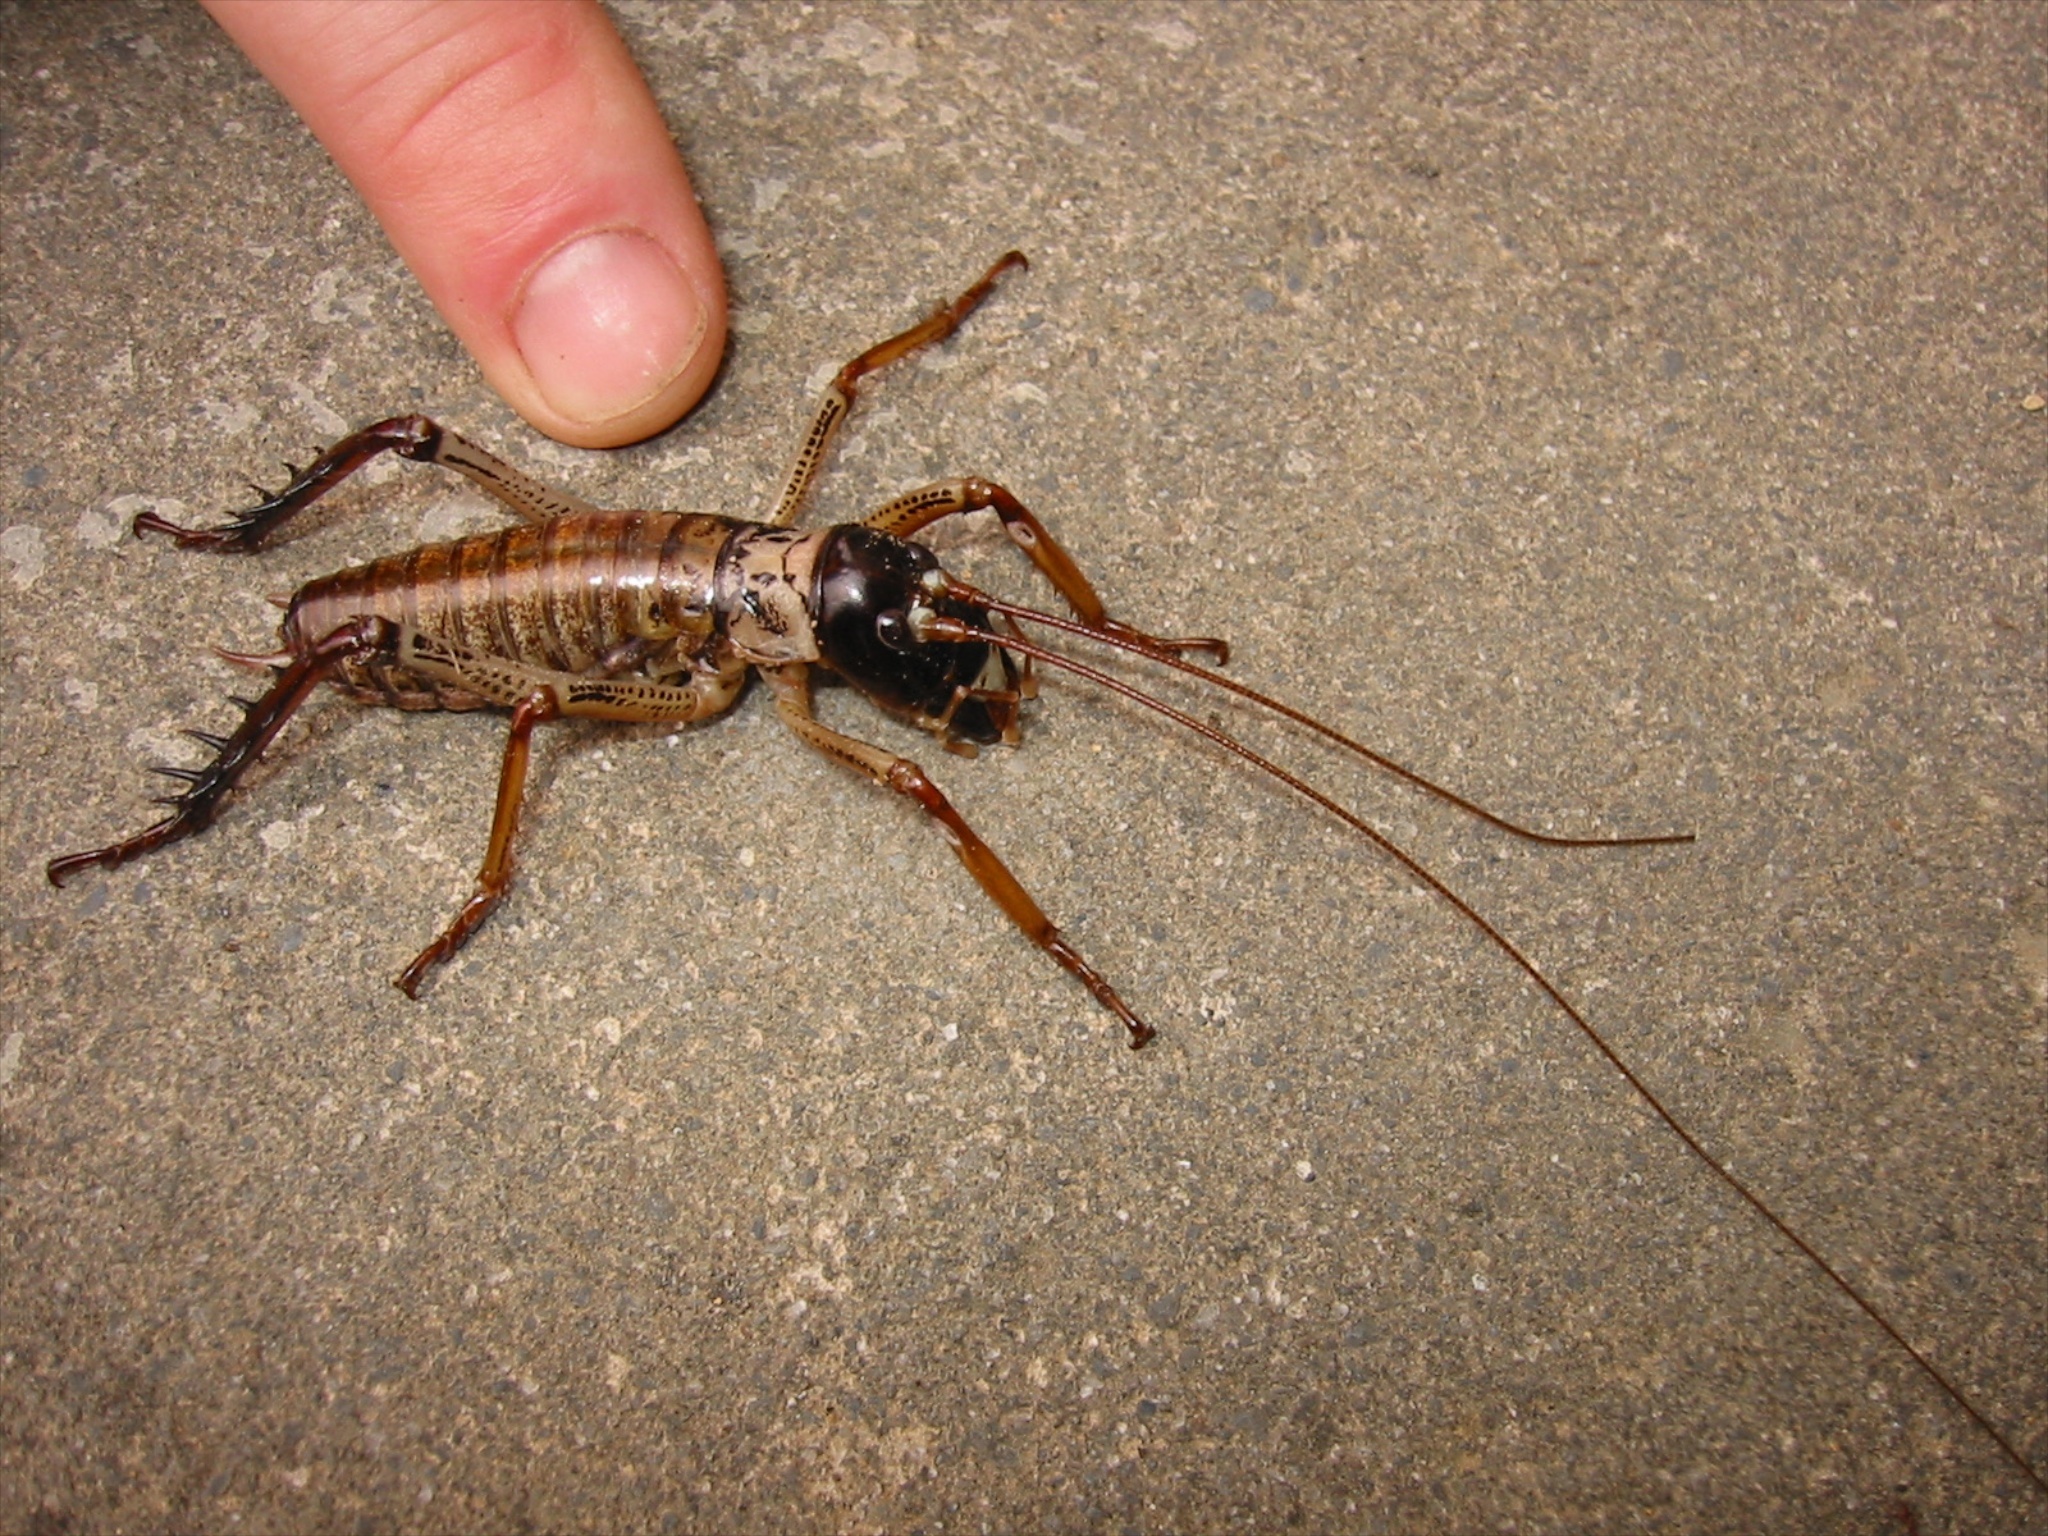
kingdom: Animalia
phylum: Arthropoda
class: Insecta
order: Orthoptera
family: Anostostomatidae
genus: Hemideina
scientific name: Hemideina thoracica
